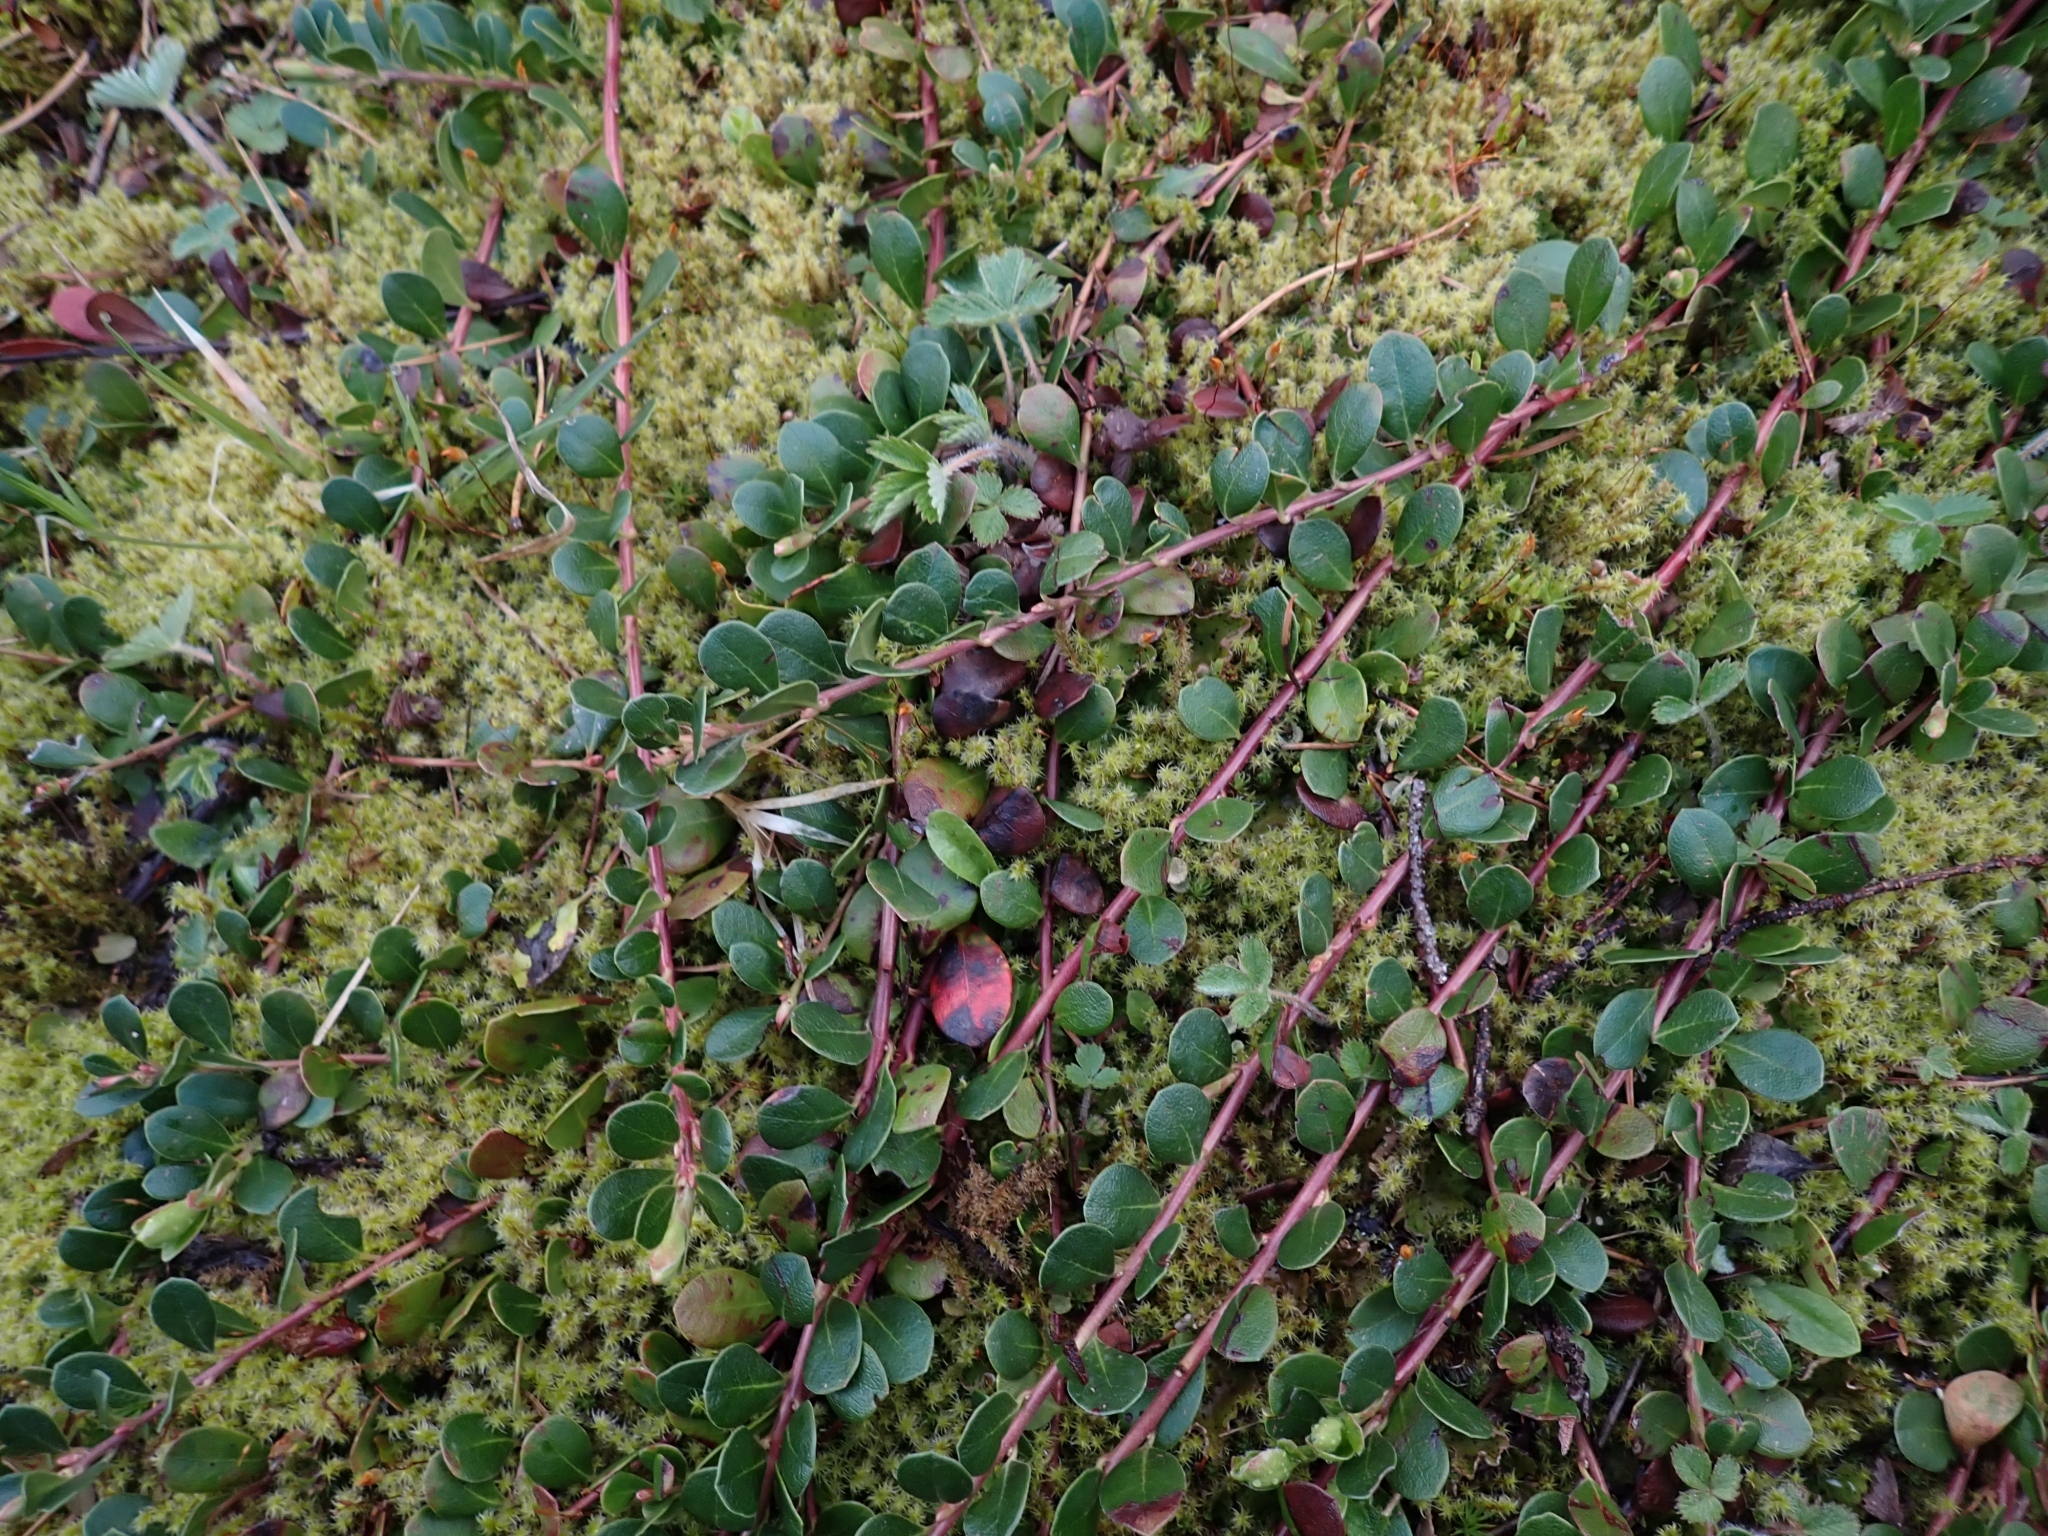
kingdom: Plantae
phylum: Tracheophyta
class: Magnoliopsida
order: Ericales
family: Ericaceae
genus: Arctostaphylos
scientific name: Arctostaphylos uva-ursi
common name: Bearberry
